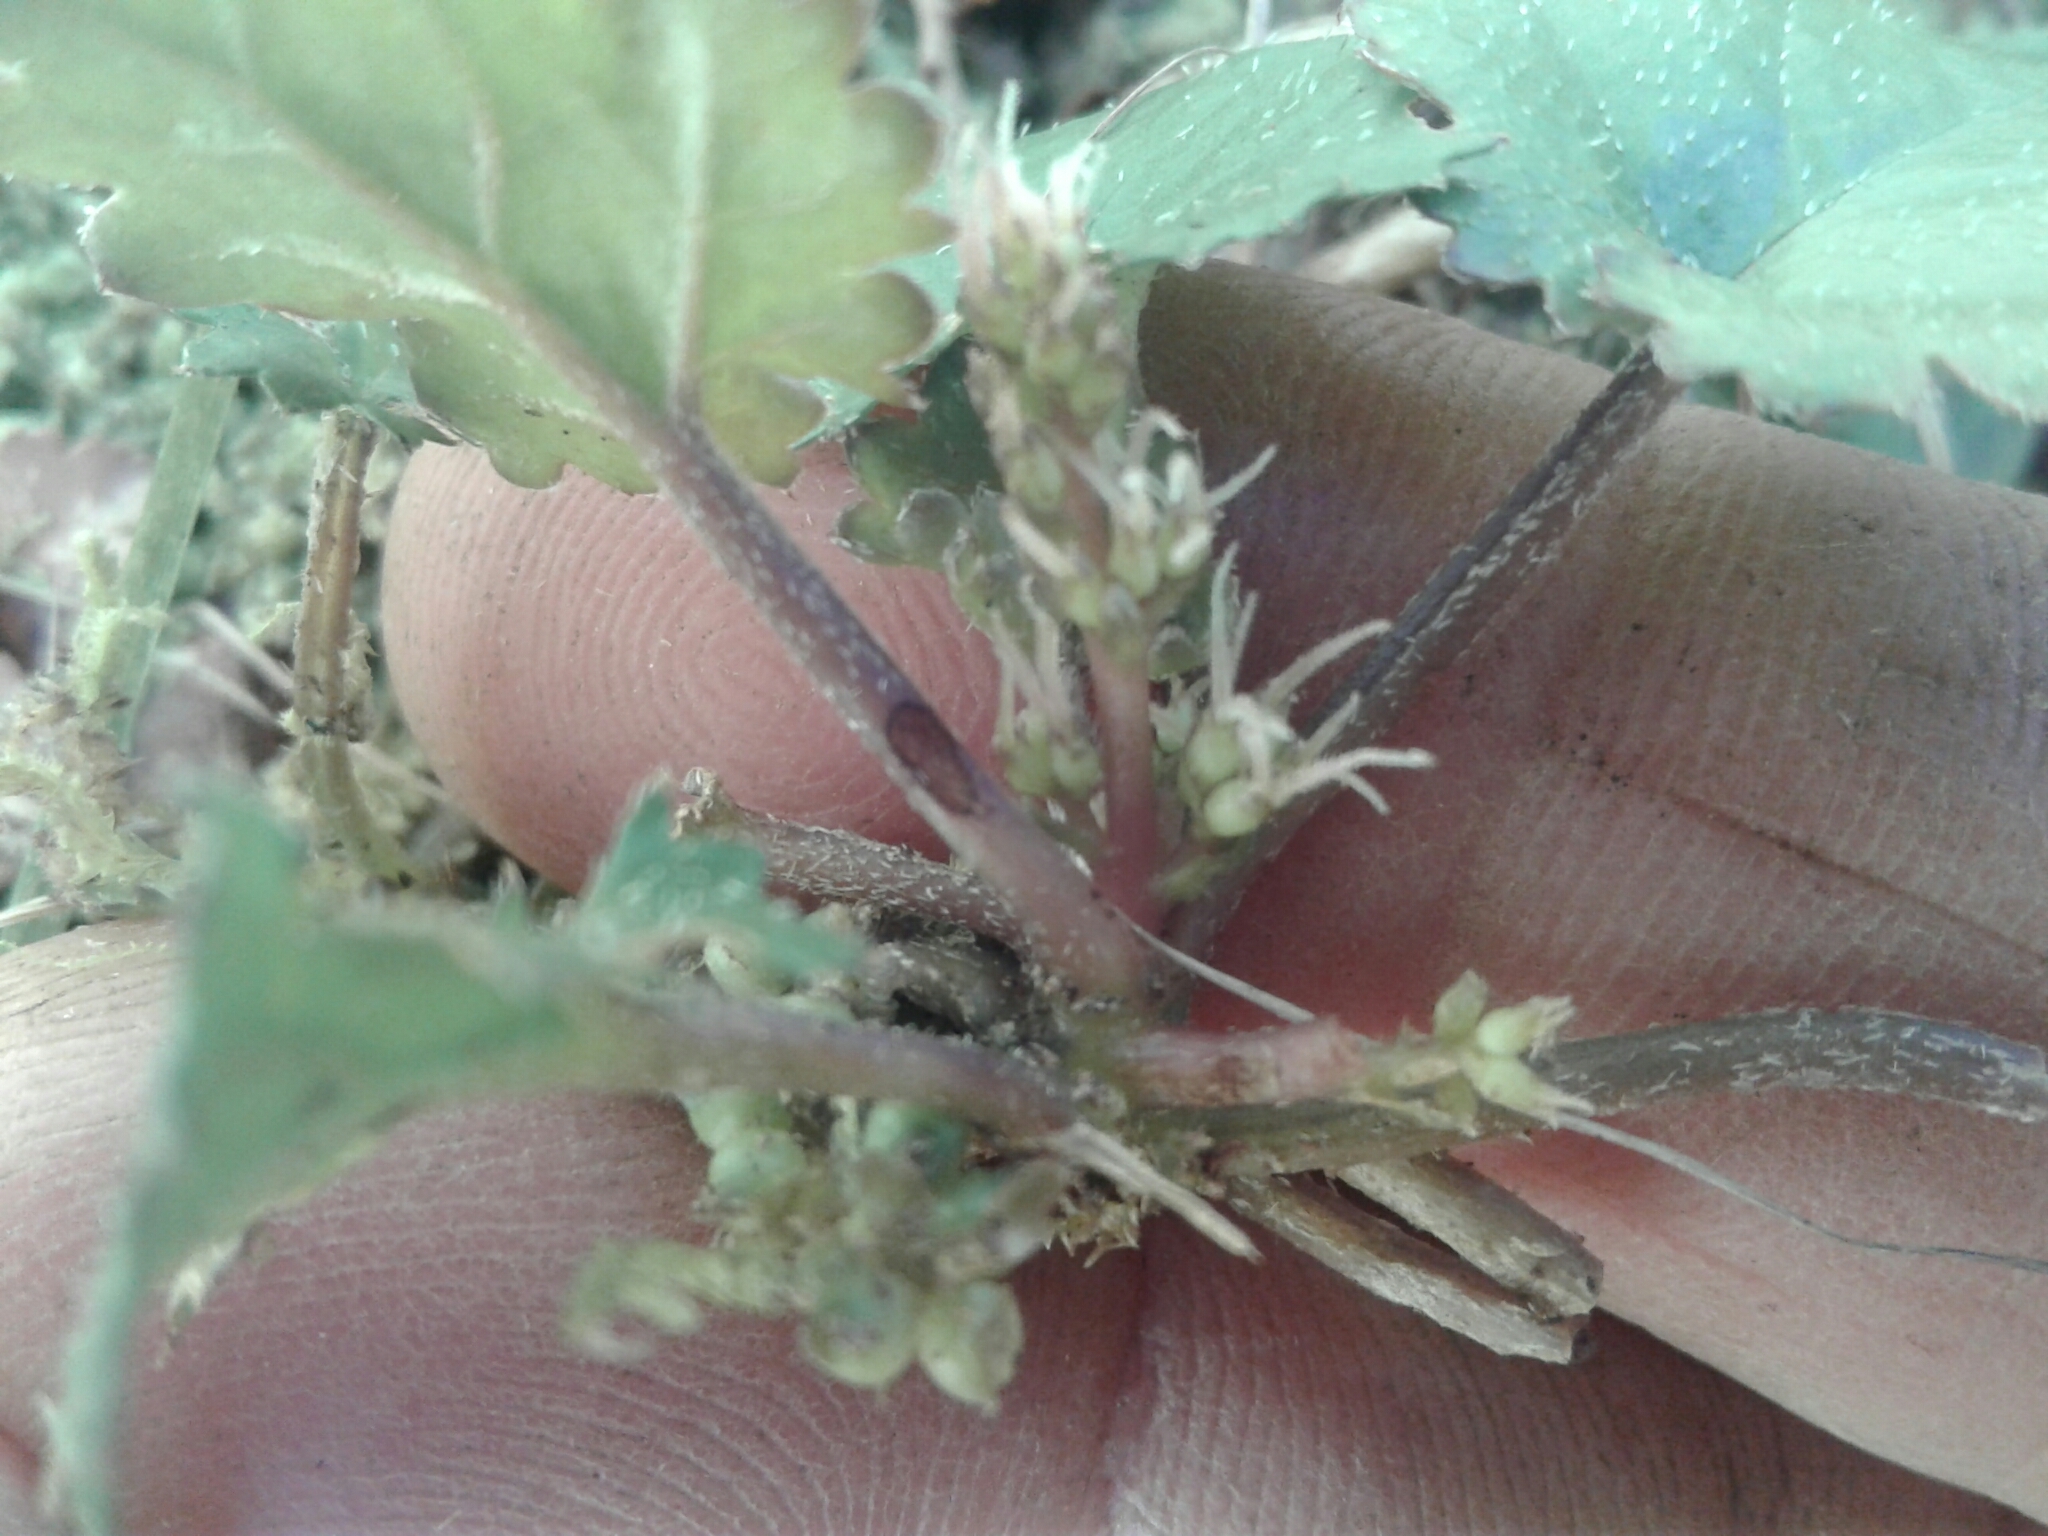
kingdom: Plantae
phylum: Tracheophyta
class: Magnoliopsida
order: Gunnerales
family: Gunneraceae
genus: Gunnera
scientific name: Gunnera monoica
